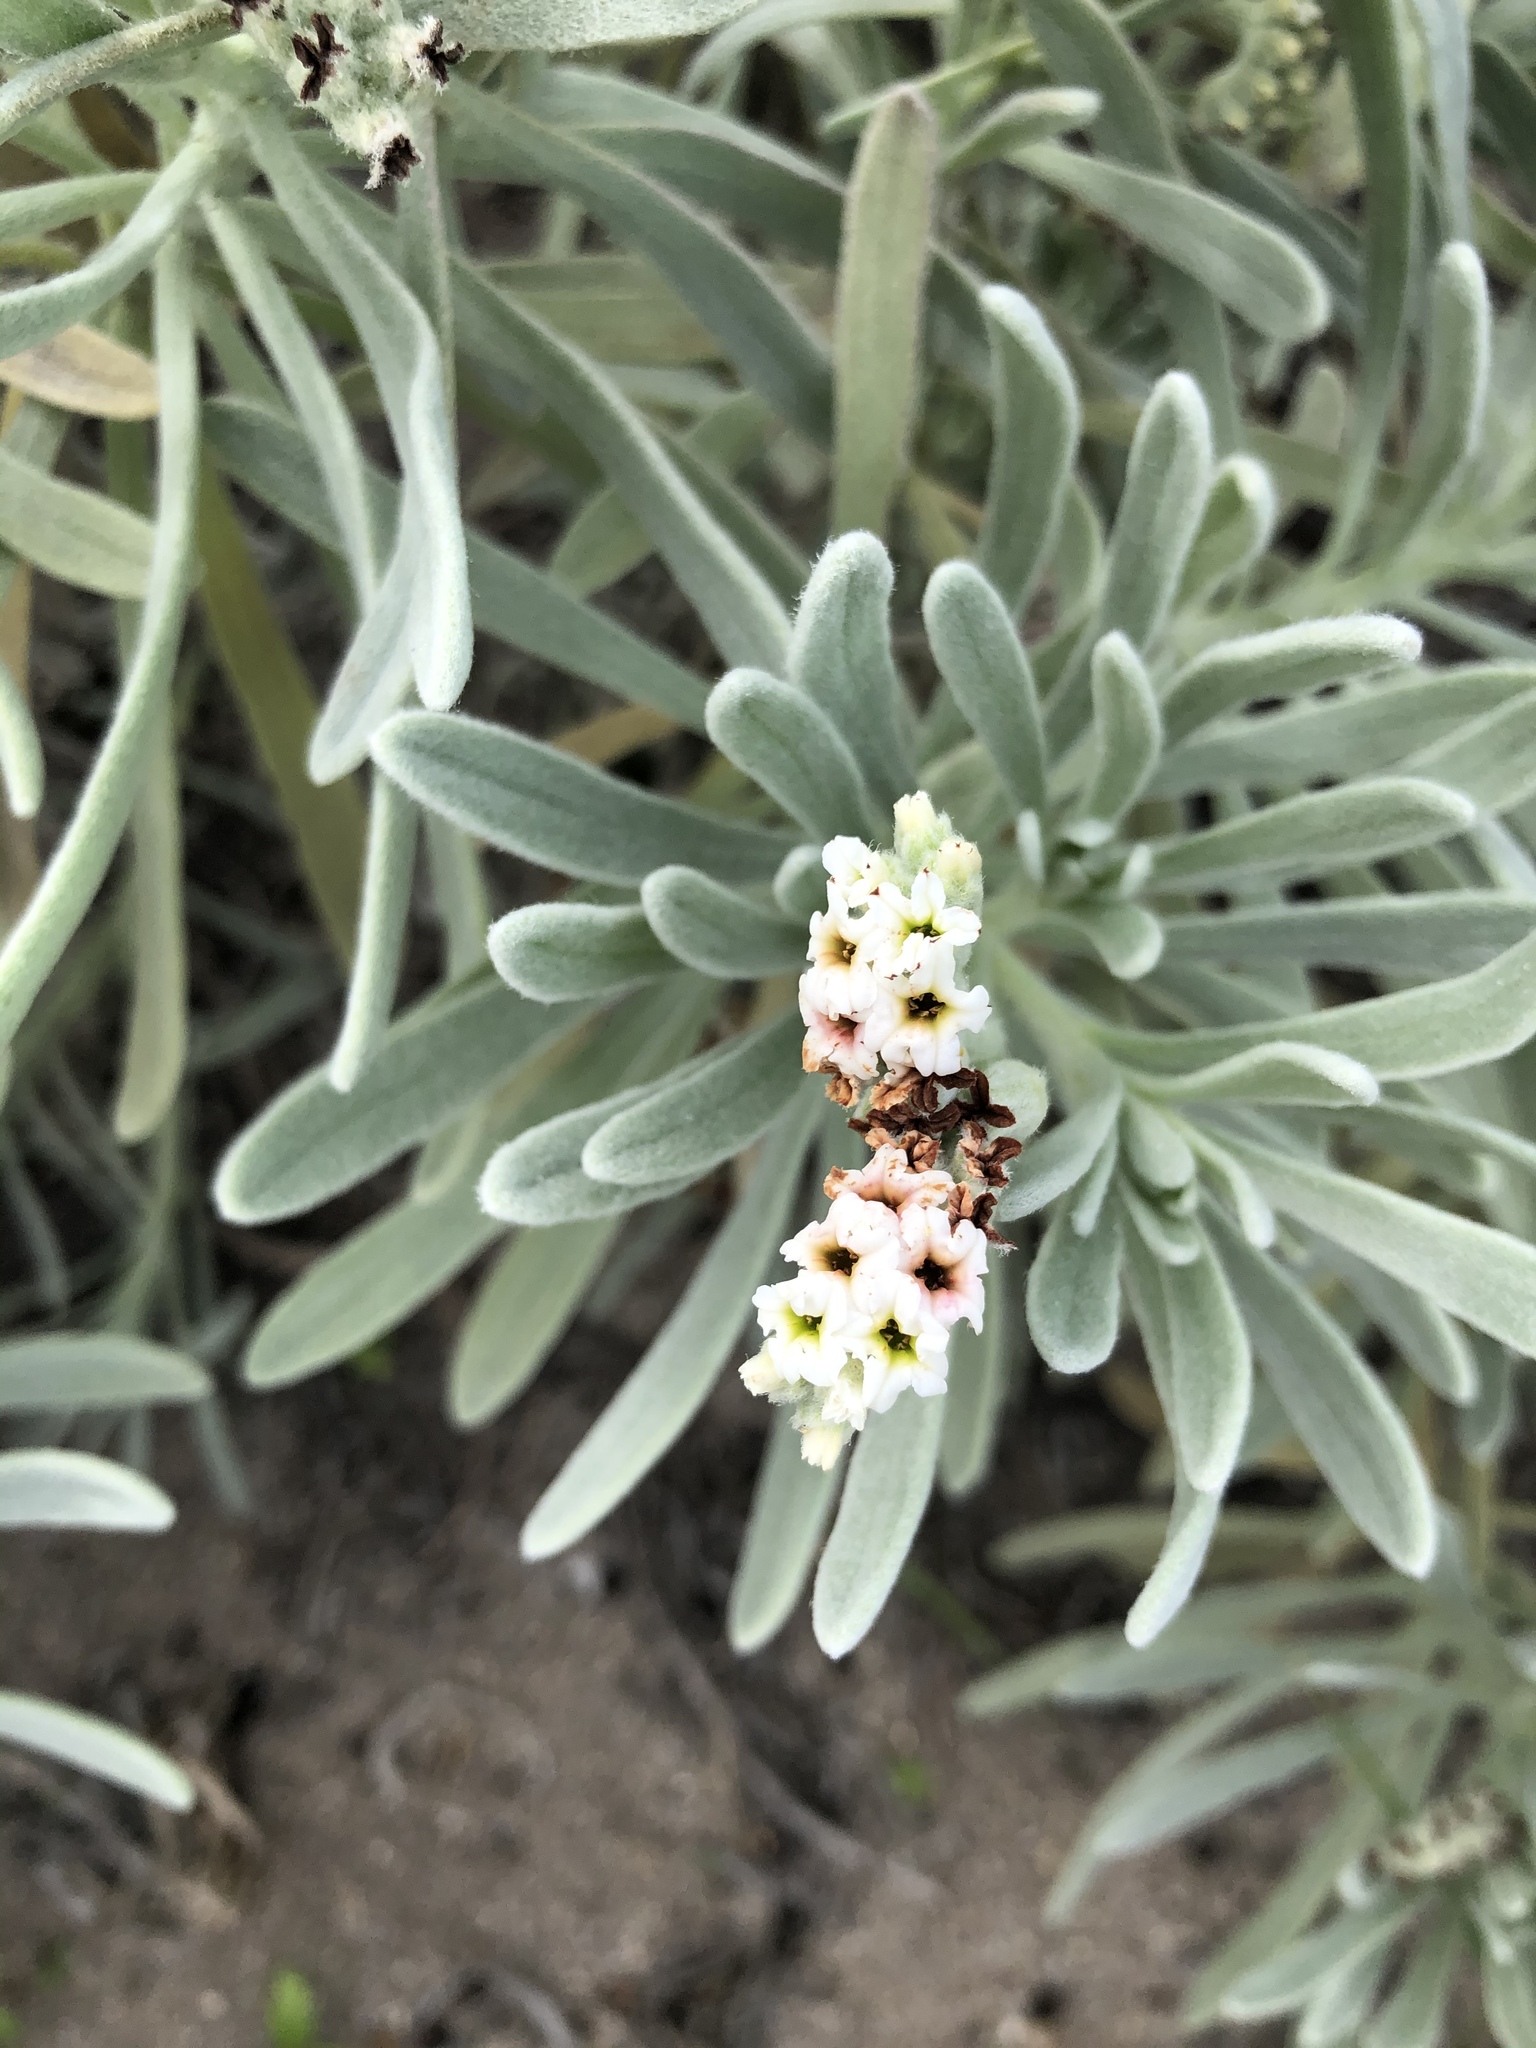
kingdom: Plantae
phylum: Tracheophyta
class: Magnoliopsida
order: Boraginales
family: Heliotropiaceae
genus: Tournefortia
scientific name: Tournefortia gnaphalodes
